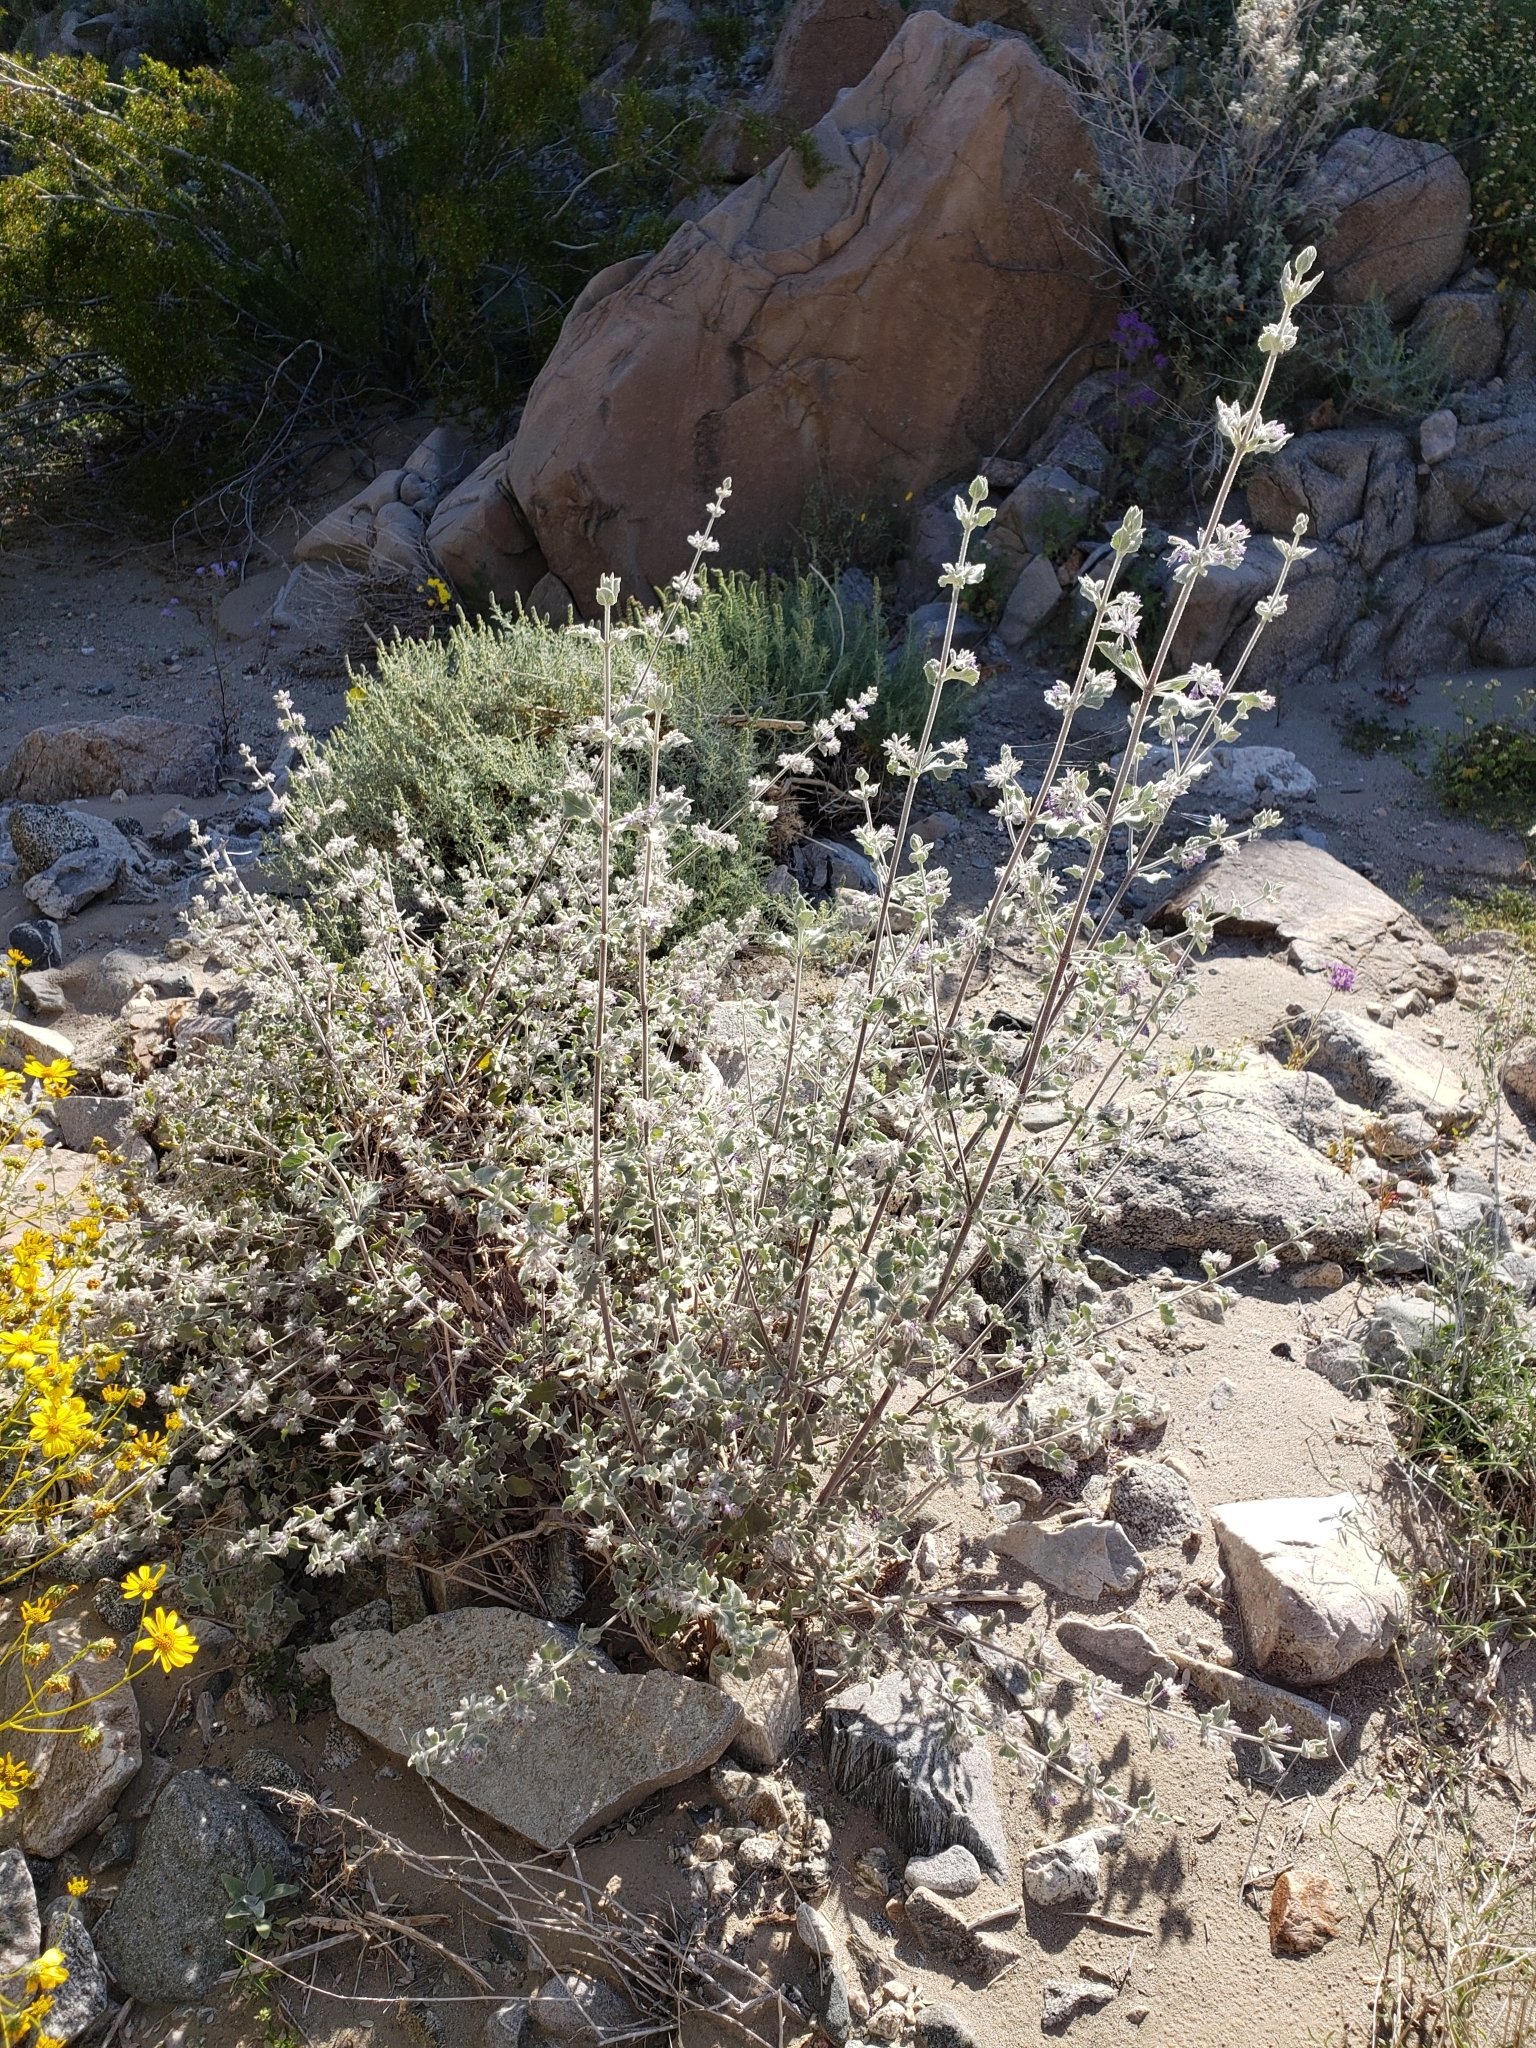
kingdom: Plantae
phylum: Tracheophyta
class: Magnoliopsida
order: Lamiales
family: Lamiaceae
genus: Condea
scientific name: Condea emoryi
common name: Chia
